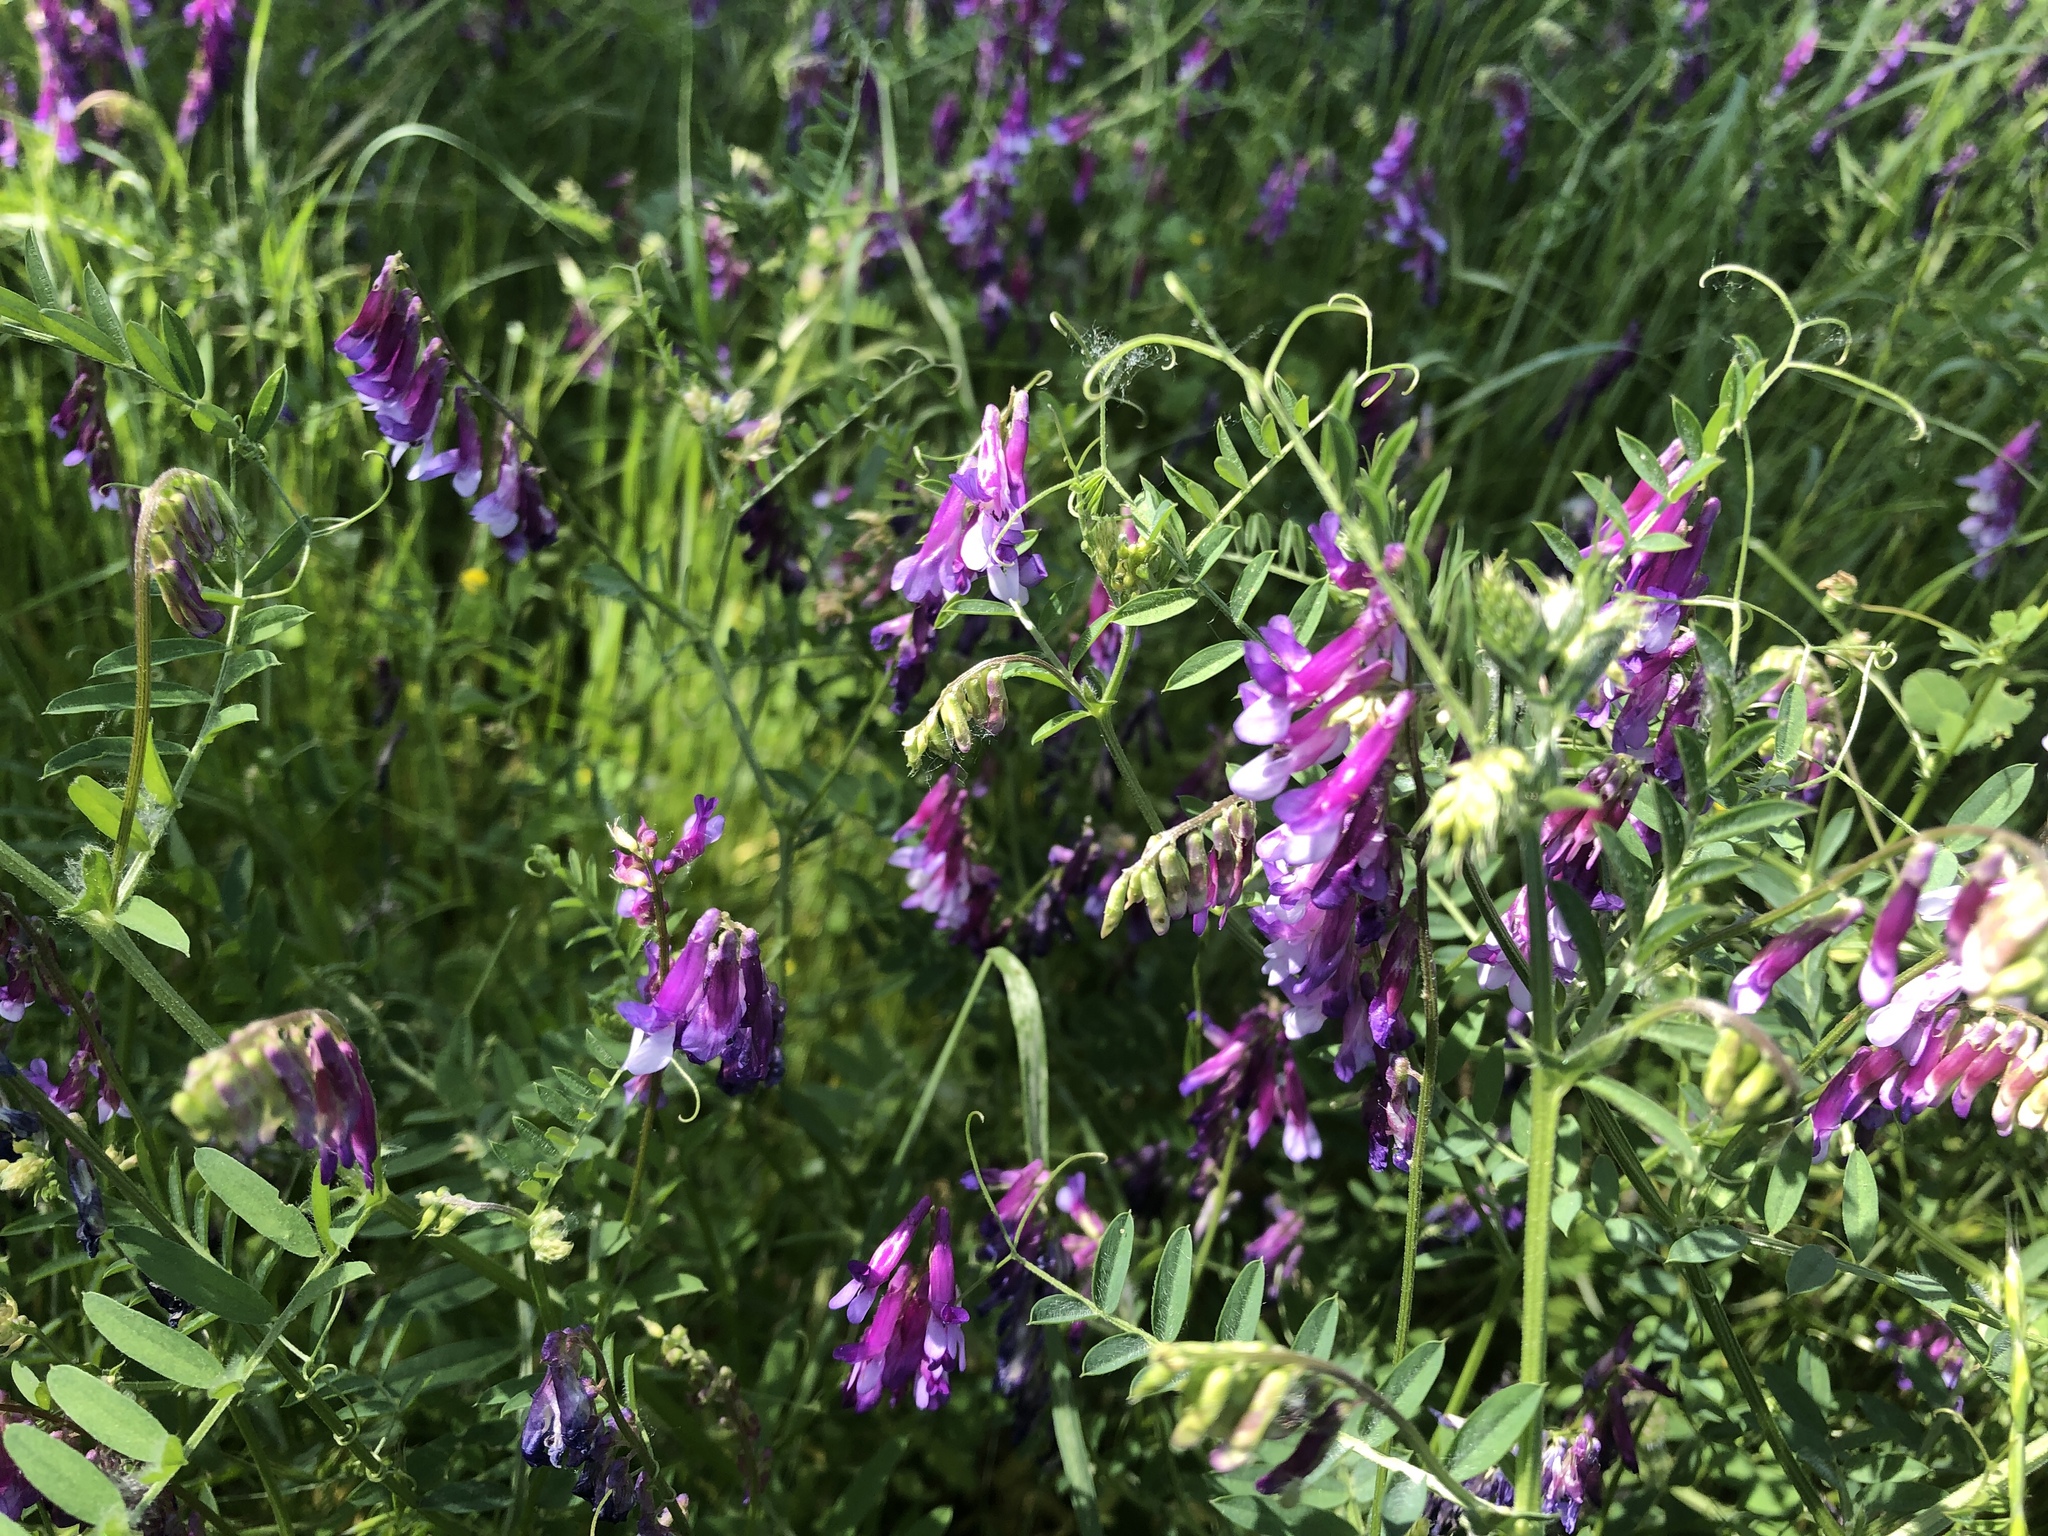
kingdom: Plantae
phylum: Tracheophyta
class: Magnoliopsida
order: Fabales
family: Fabaceae
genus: Vicia
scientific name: Vicia villosa
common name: Fodder vetch
